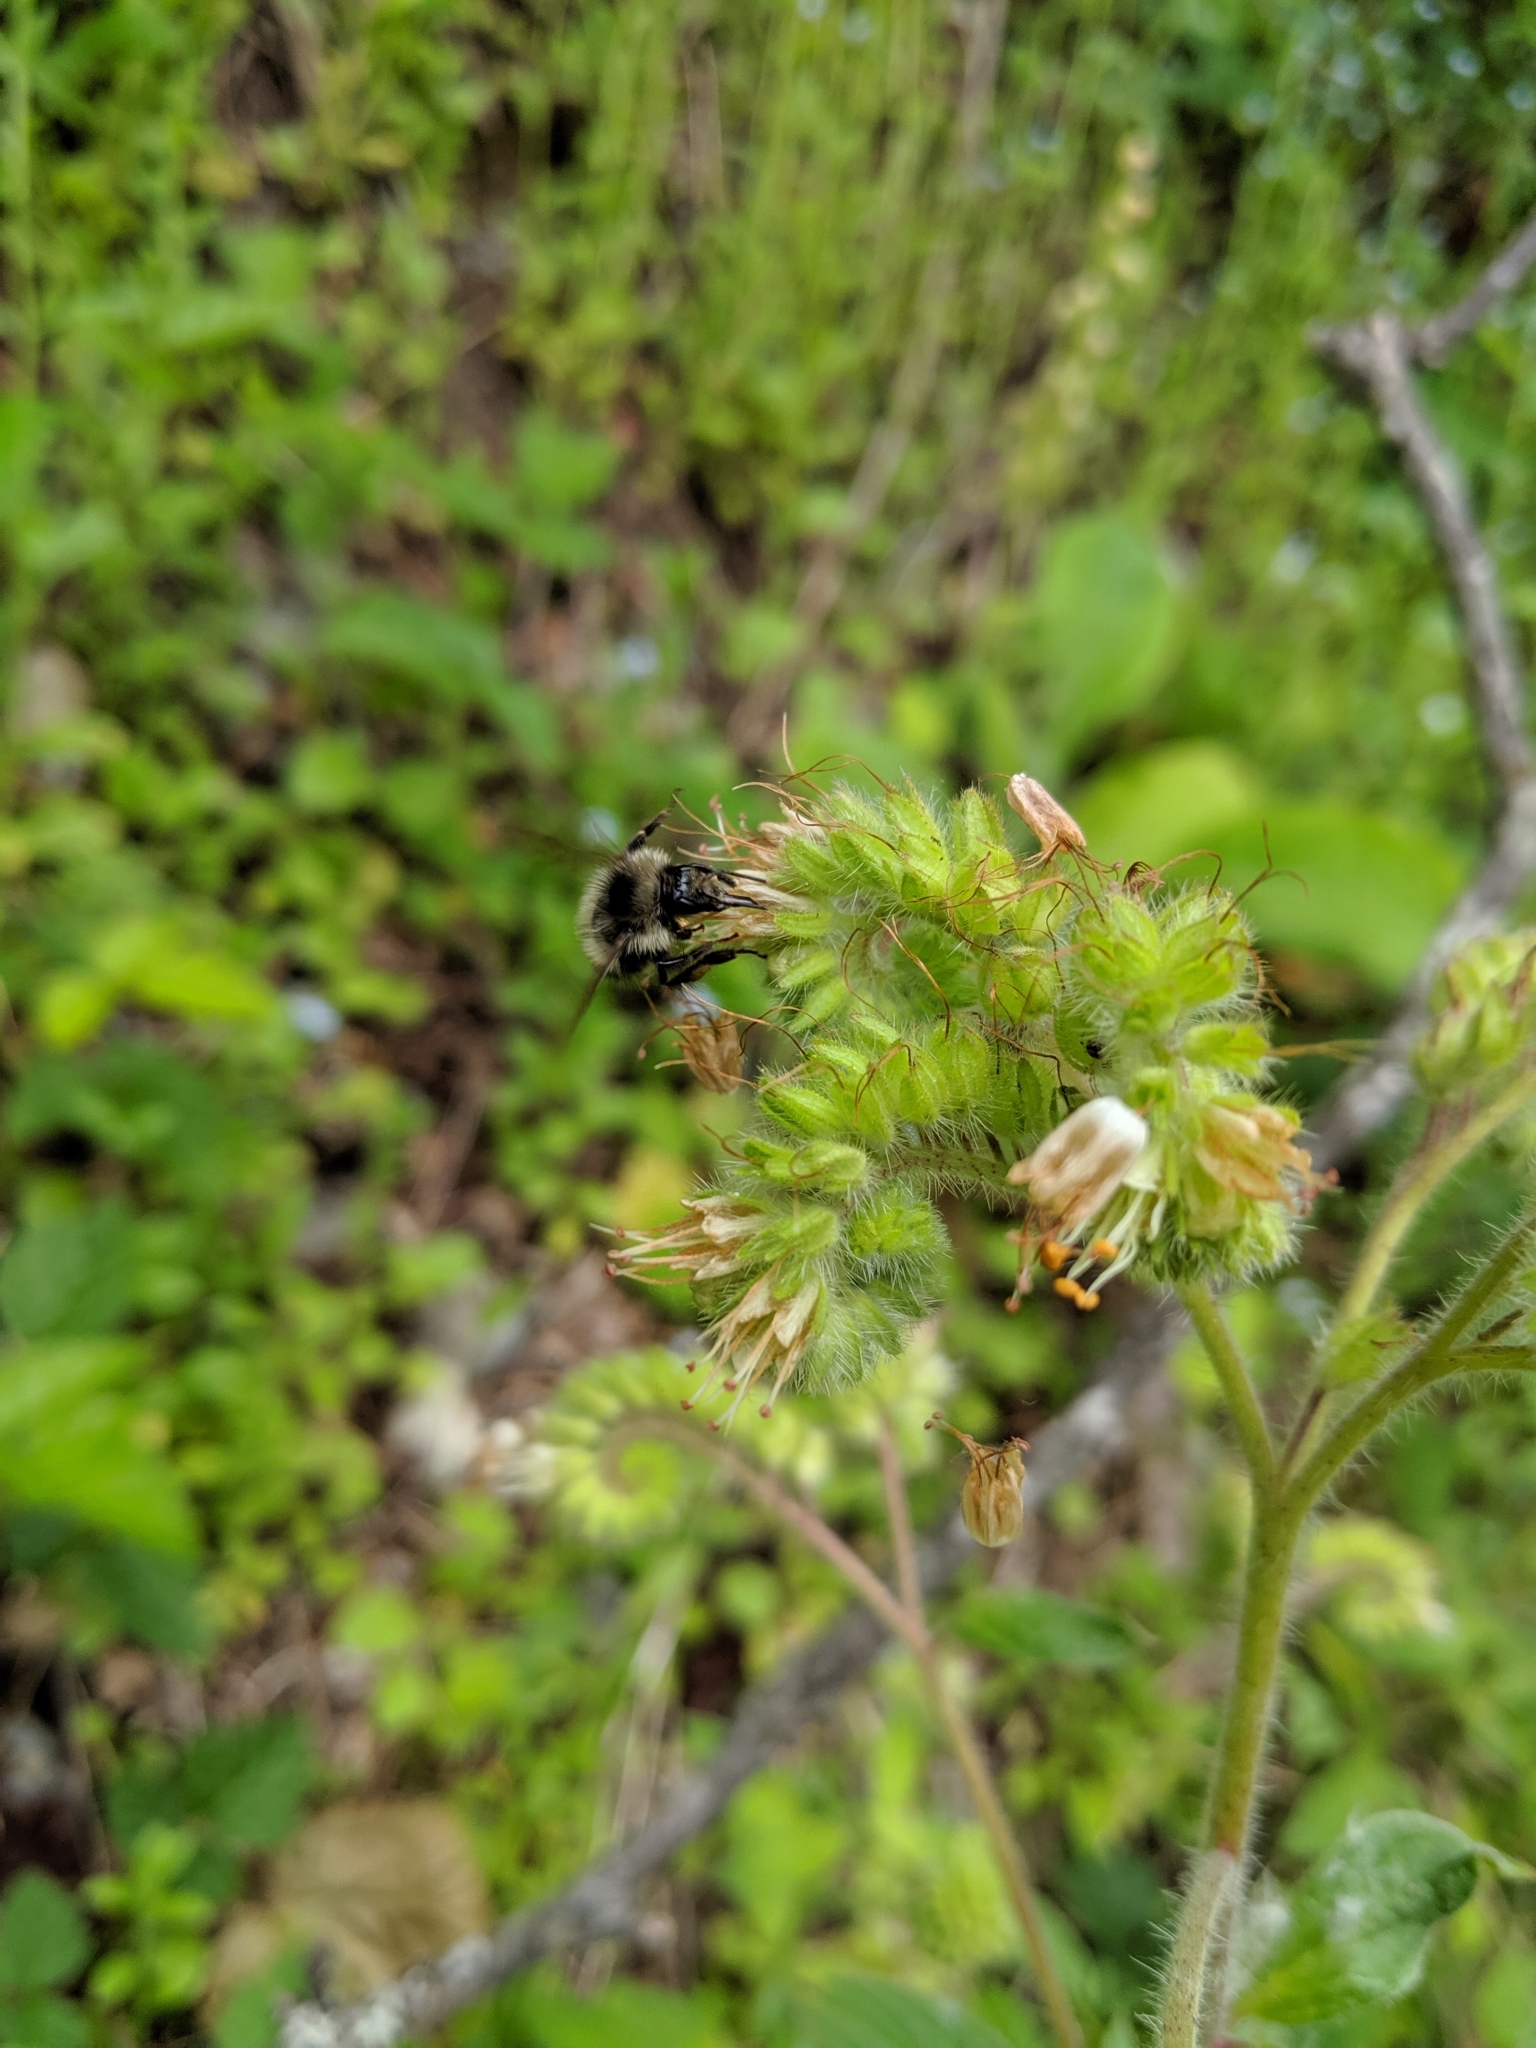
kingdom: Plantae
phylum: Tracheophyta
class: Magnoliopsida
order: Boraginales
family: Hydrophyllaceae
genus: Phacelia
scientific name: Phacelia nemoralis
